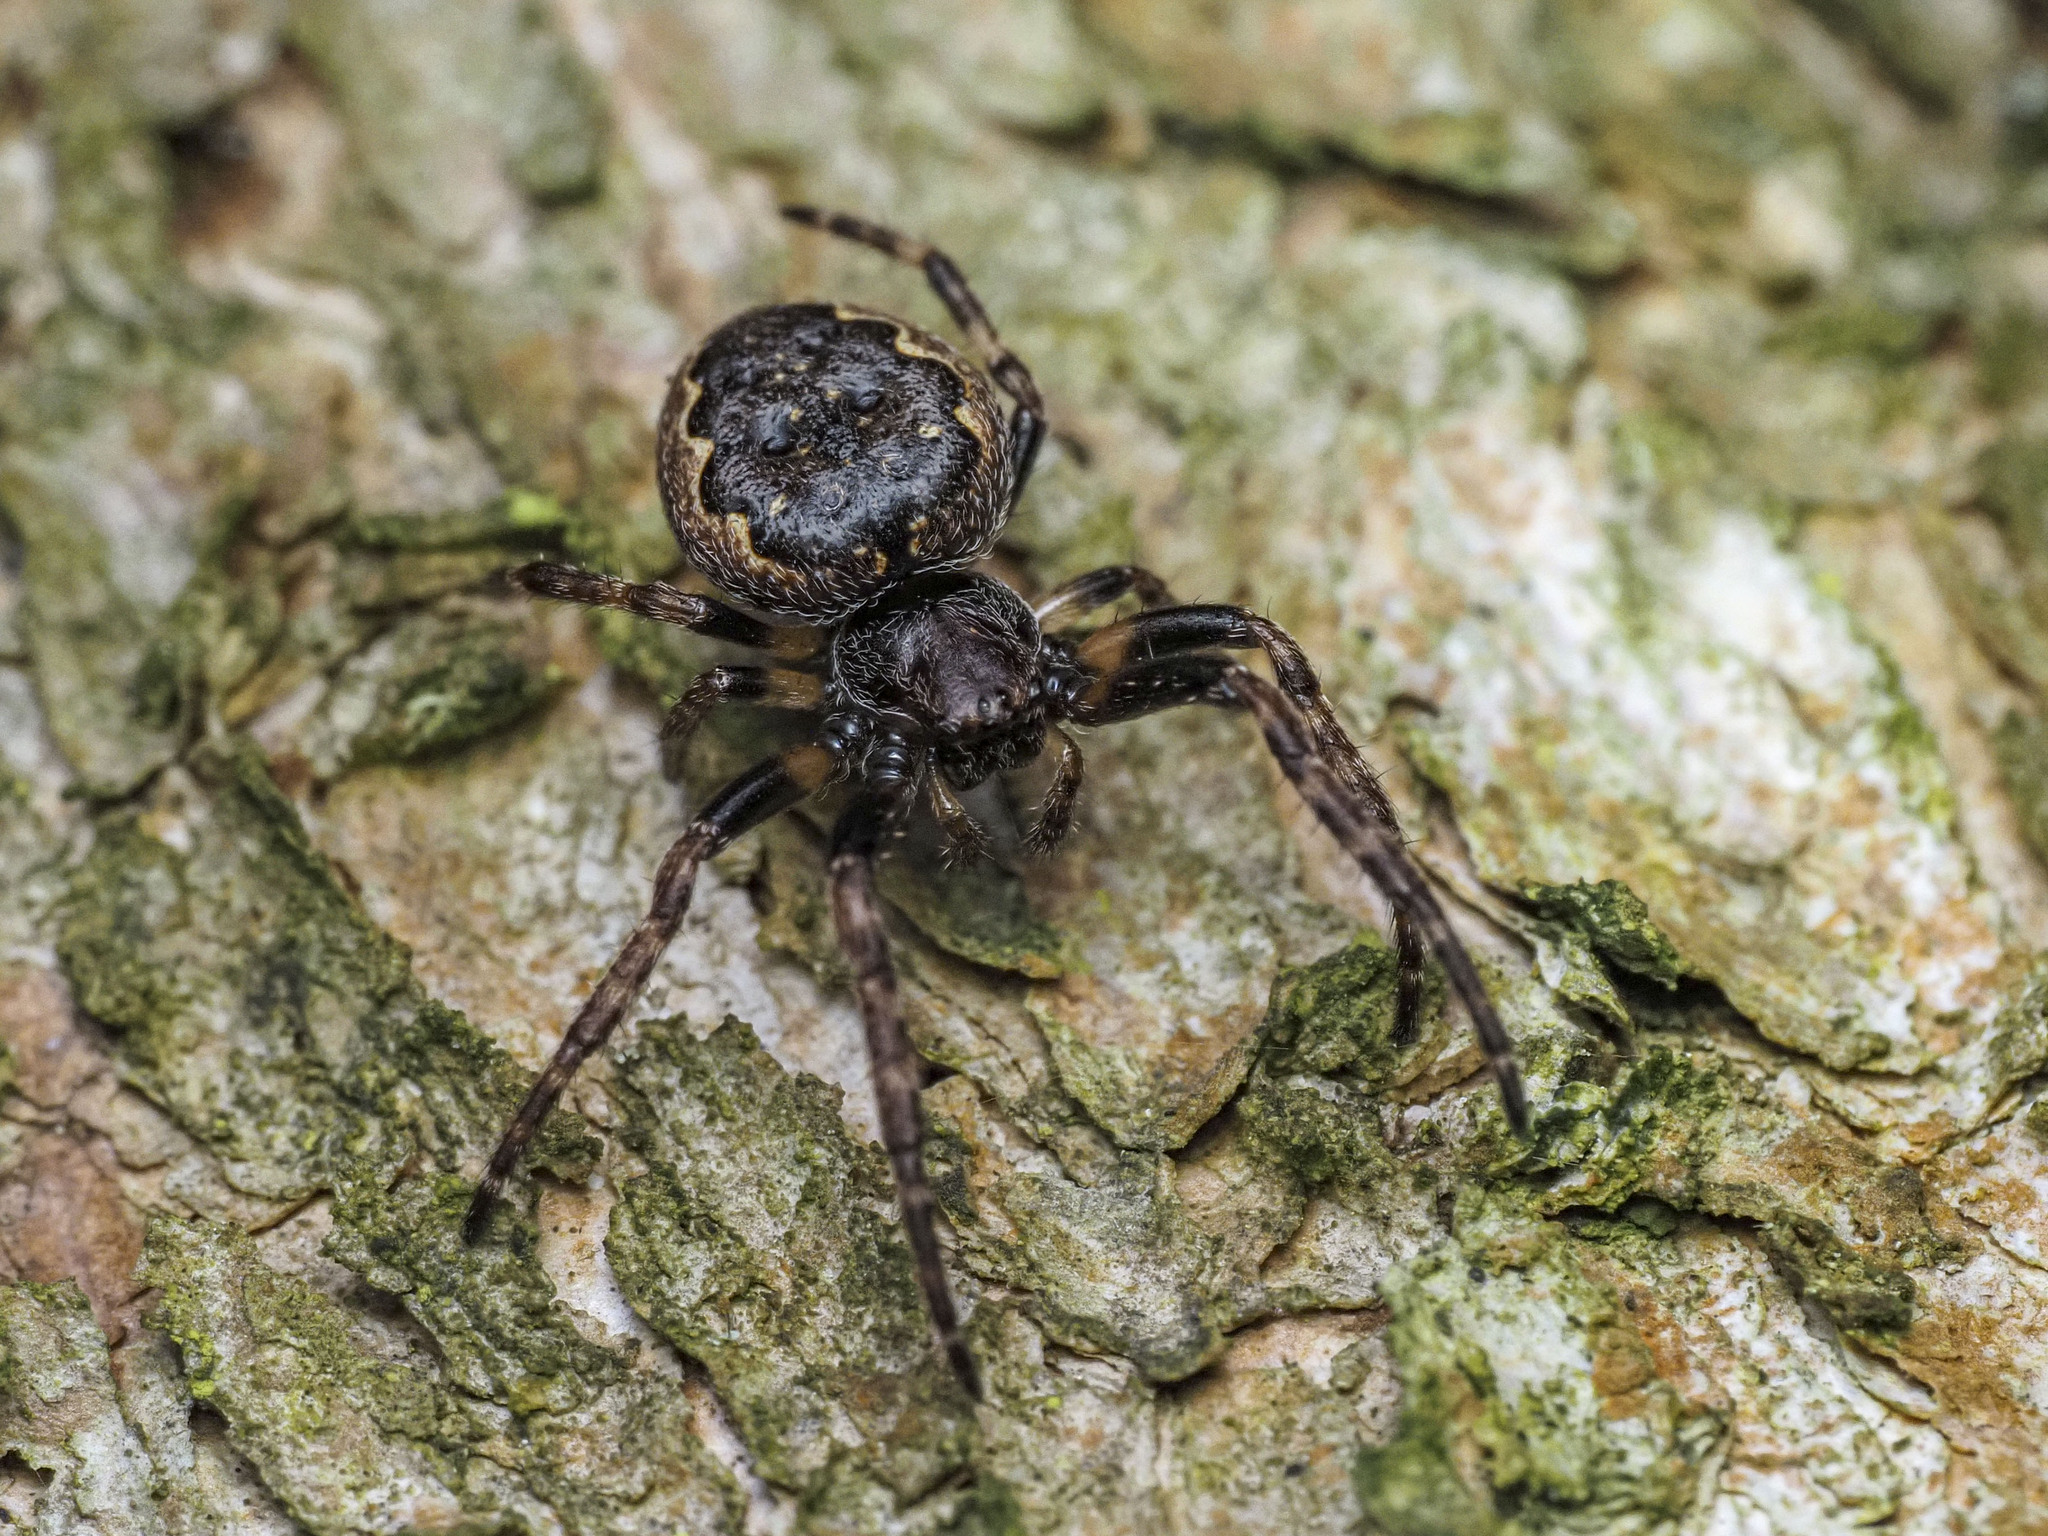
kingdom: Animalia
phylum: Arthropoda
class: Arachnida
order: Araneae
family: Araneidae
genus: Nuctenea
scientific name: Nuctenea umbratica
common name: Toad spider
